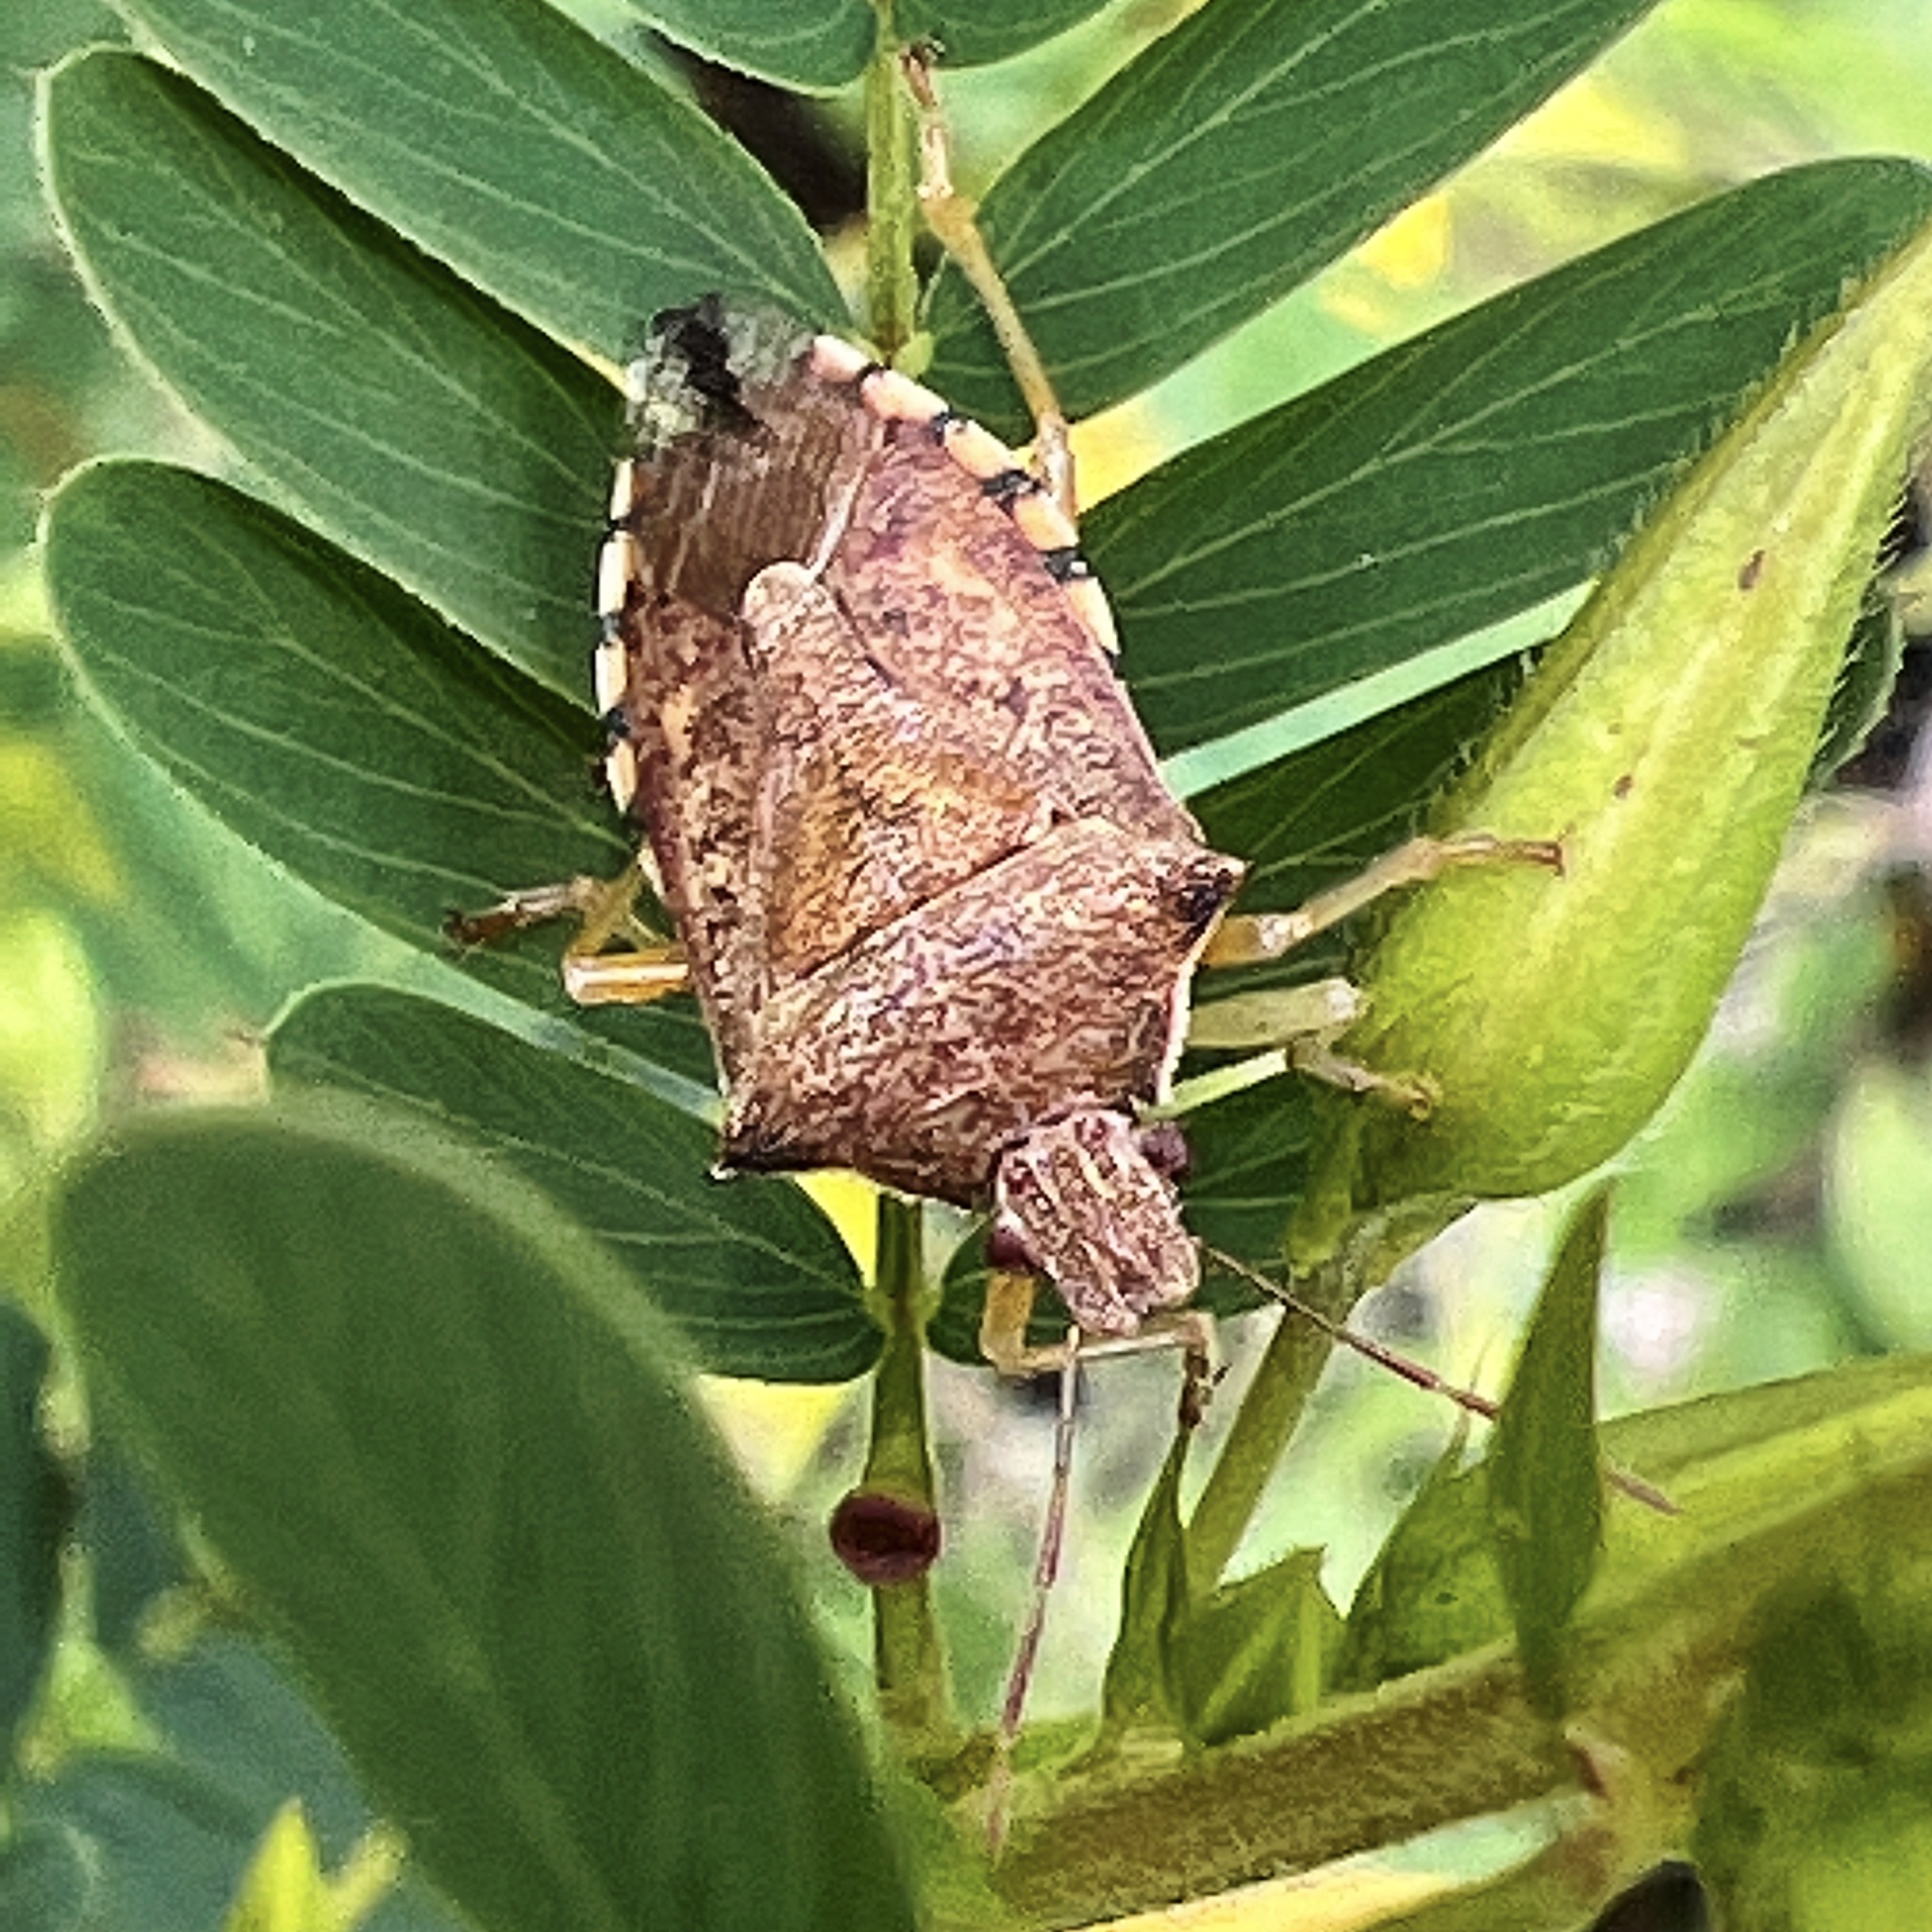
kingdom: Animalia
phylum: Arthropoda
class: Insecta
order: Hemiptera
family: Pentatomidae
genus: Podisus
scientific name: Podisus maculiventris
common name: Spined soldier bug
